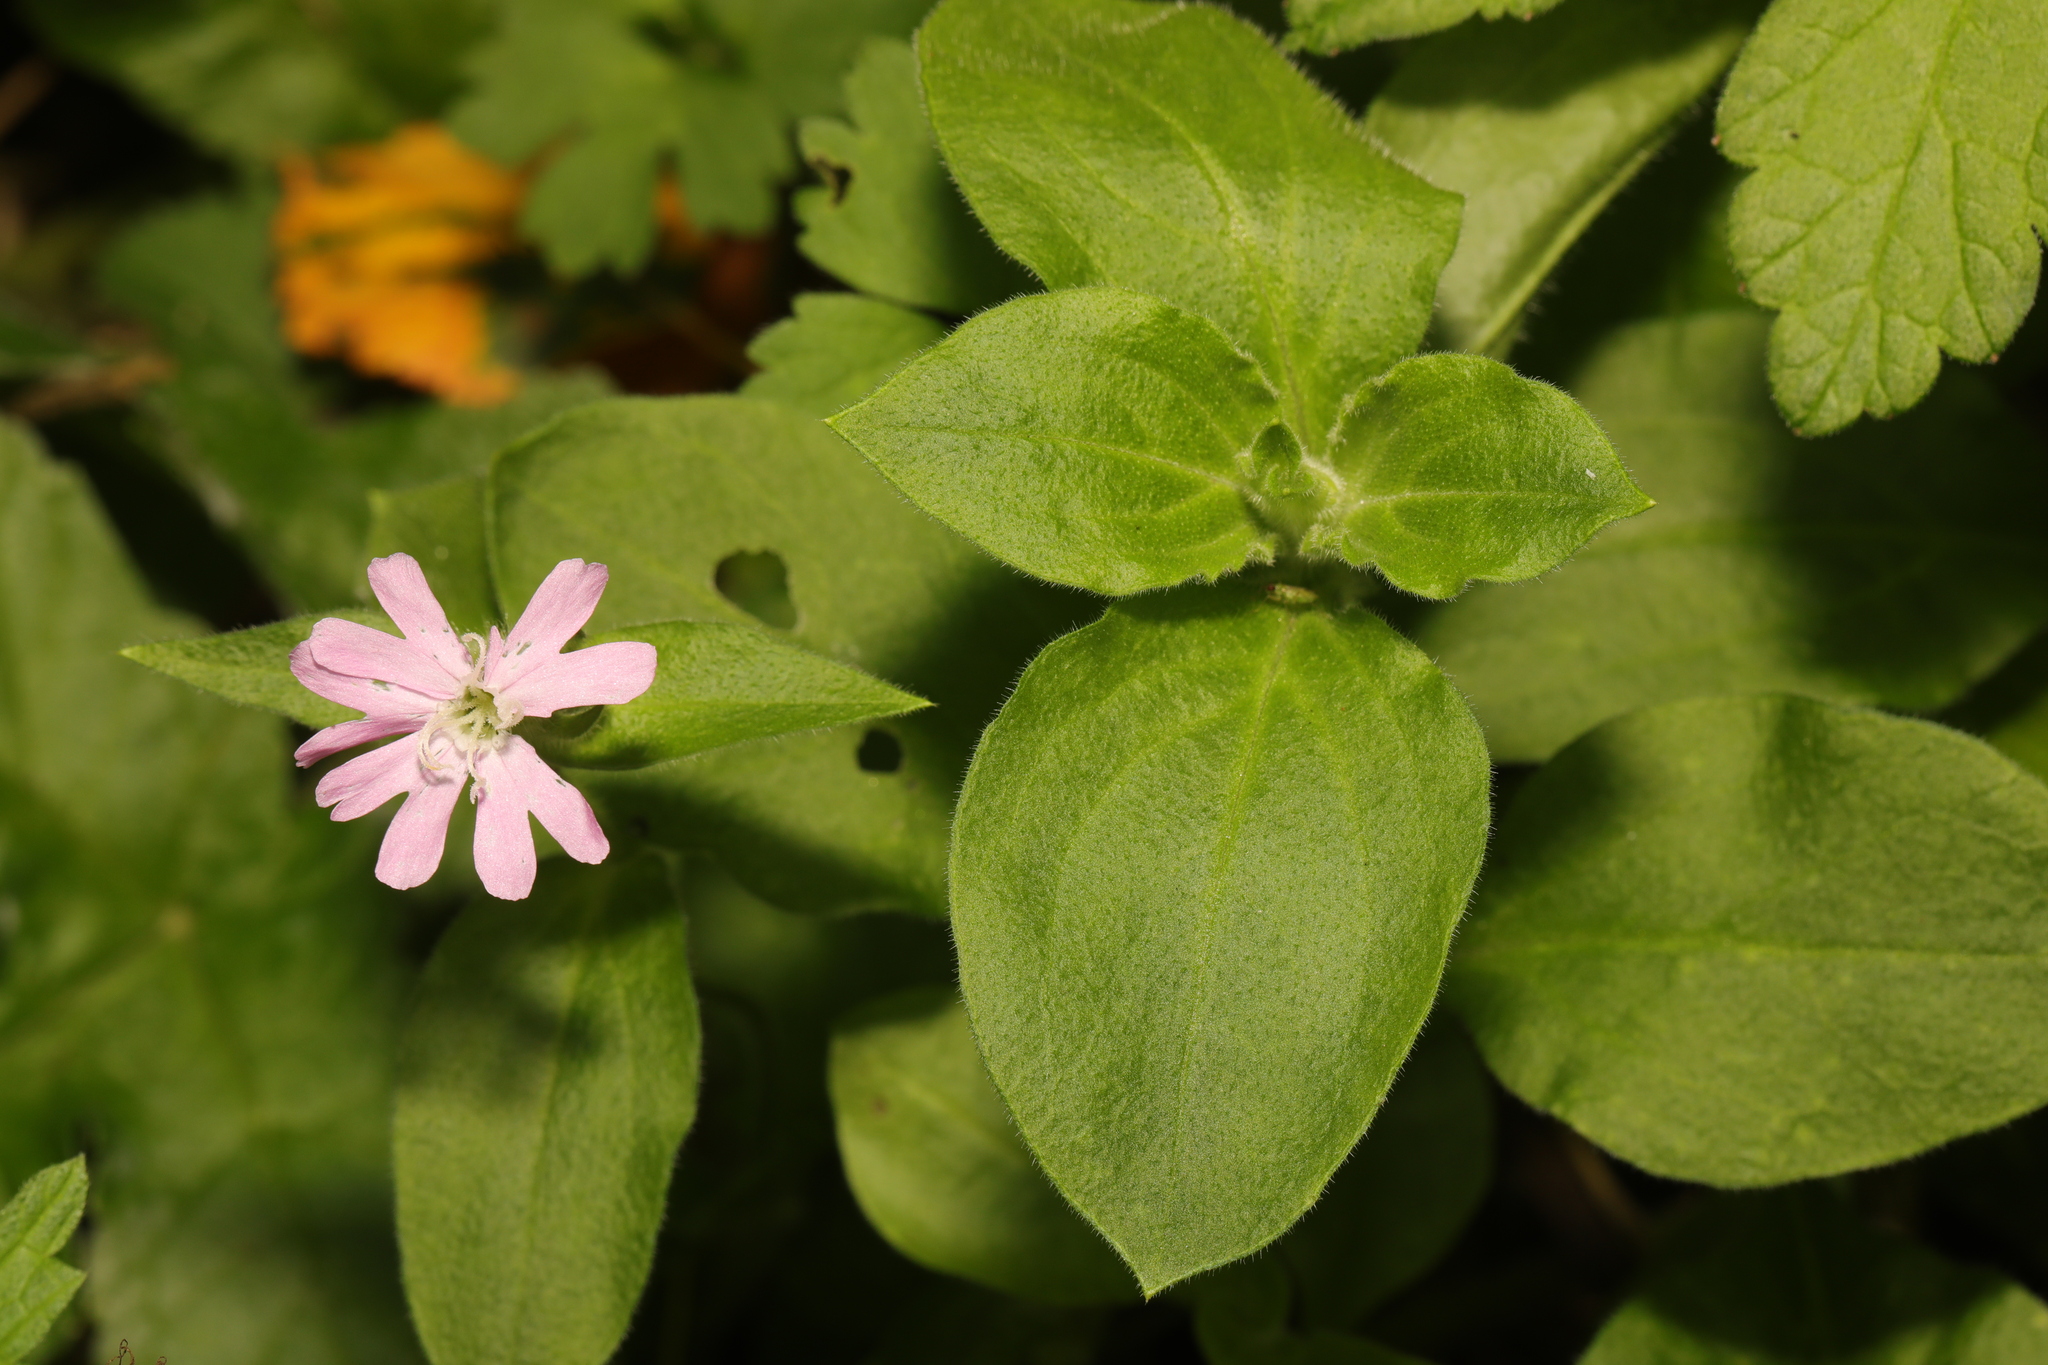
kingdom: Plantae
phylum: Tracheophyta
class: Magnoliopsida
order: Caryophyllales
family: Caryophyllaceae
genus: Silene
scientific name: Silene dioica
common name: Red campion
